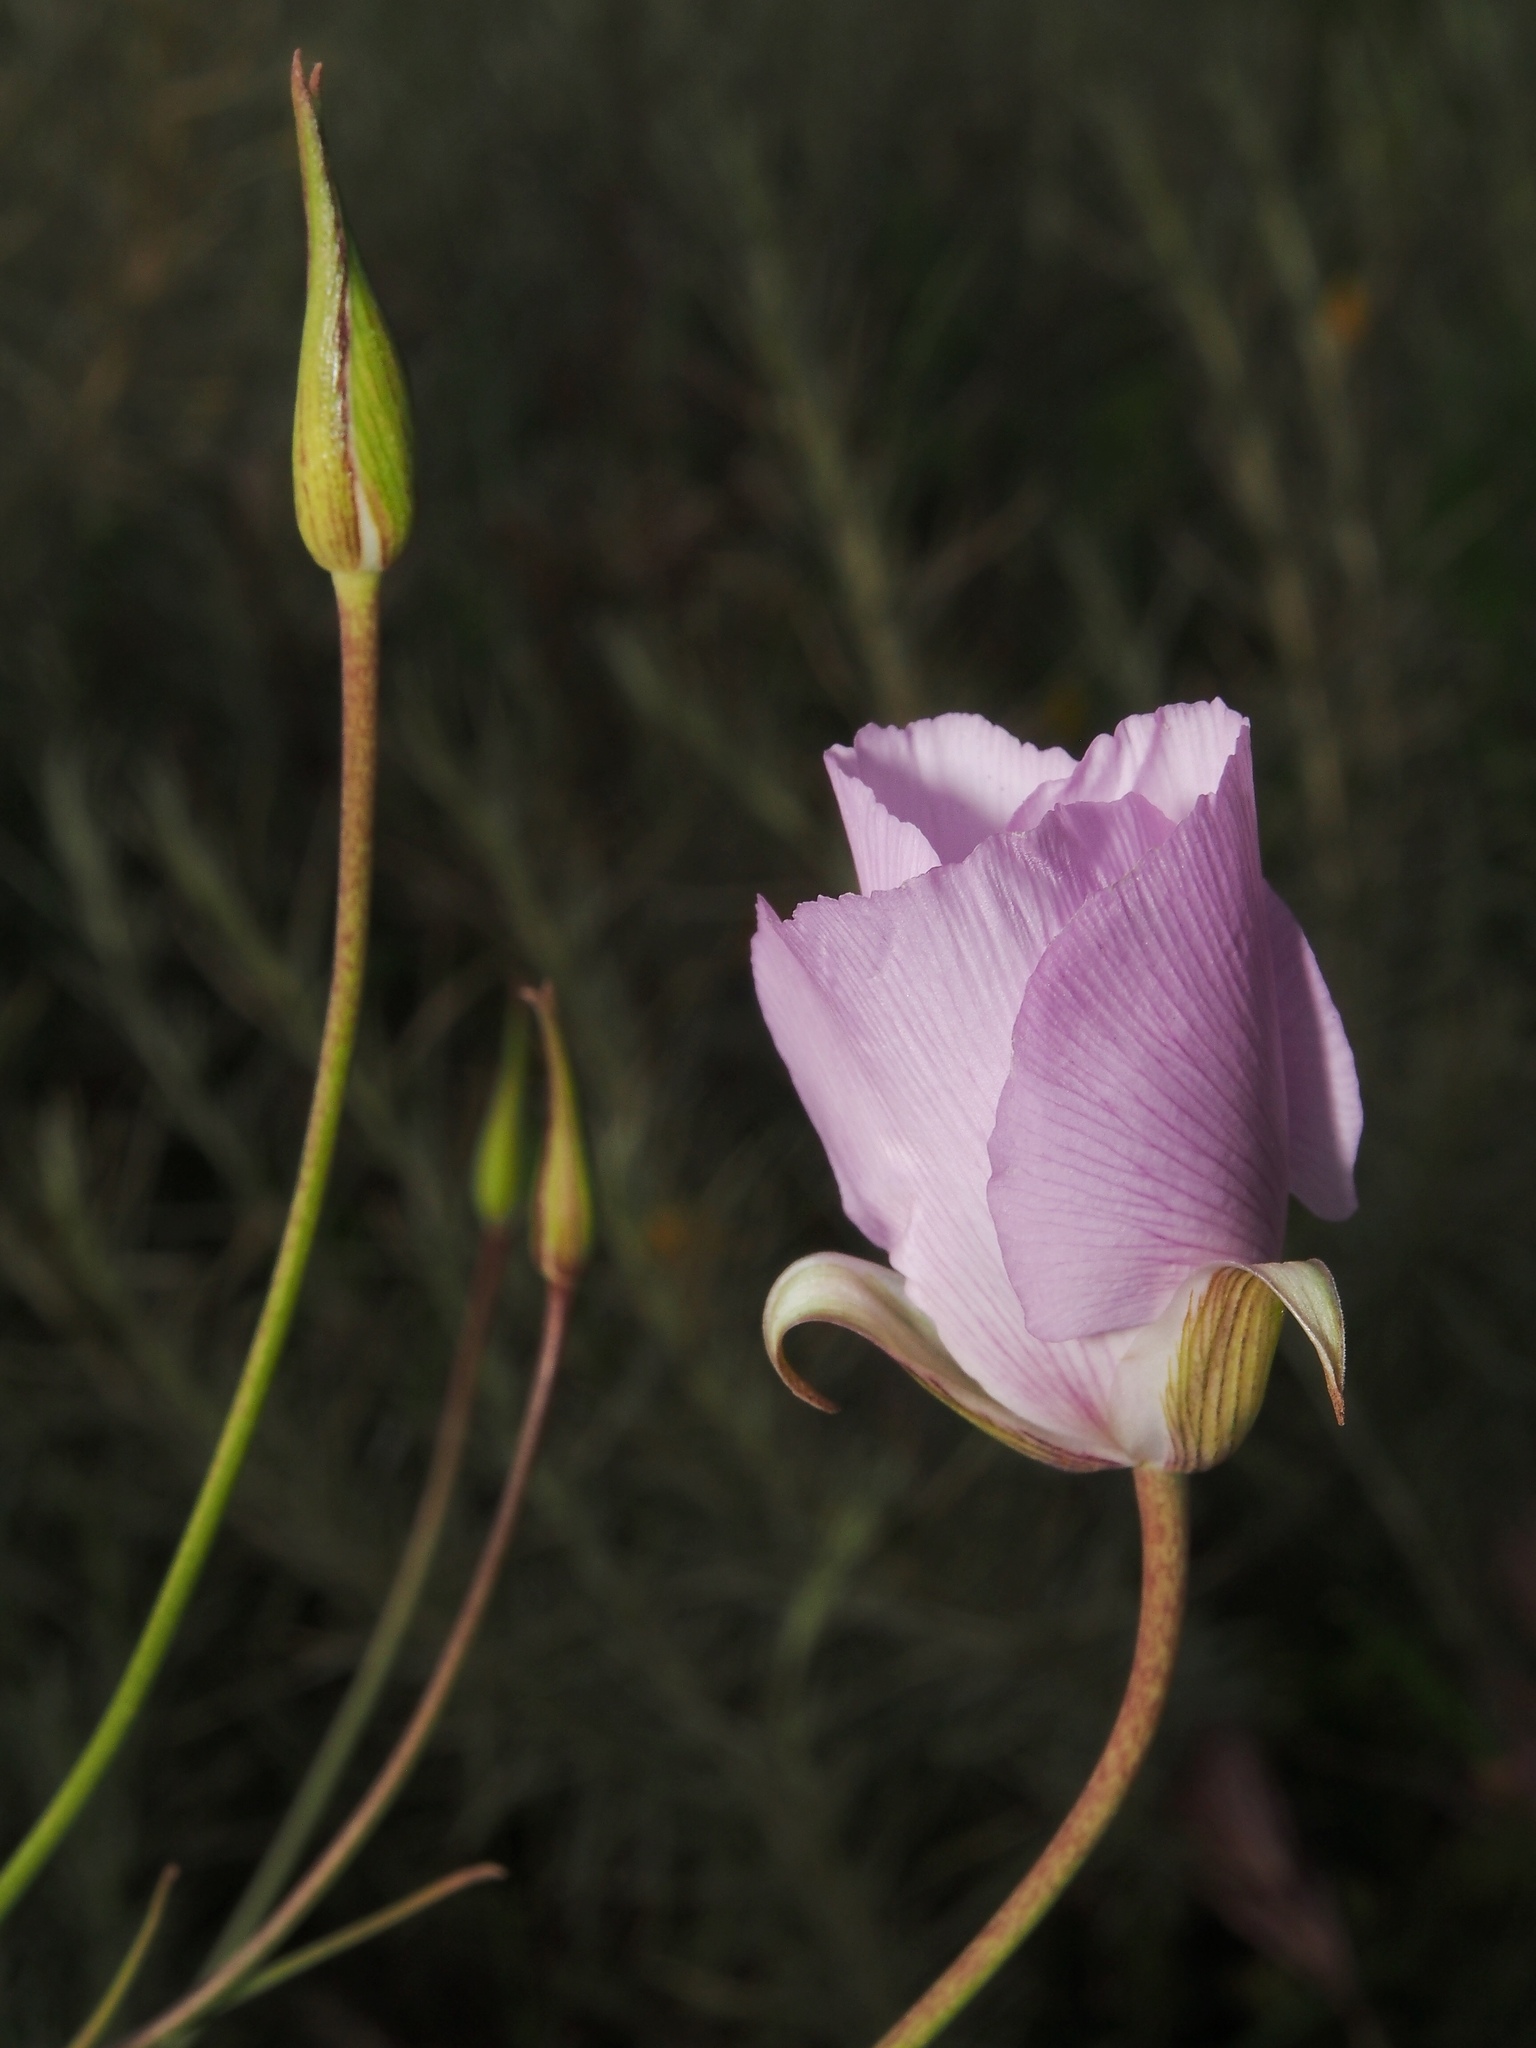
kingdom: Plantae
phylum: Tracheophyta
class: Liliopsida
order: Liliales
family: Liliaceae
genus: Calochortus
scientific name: Calochortus splendens
